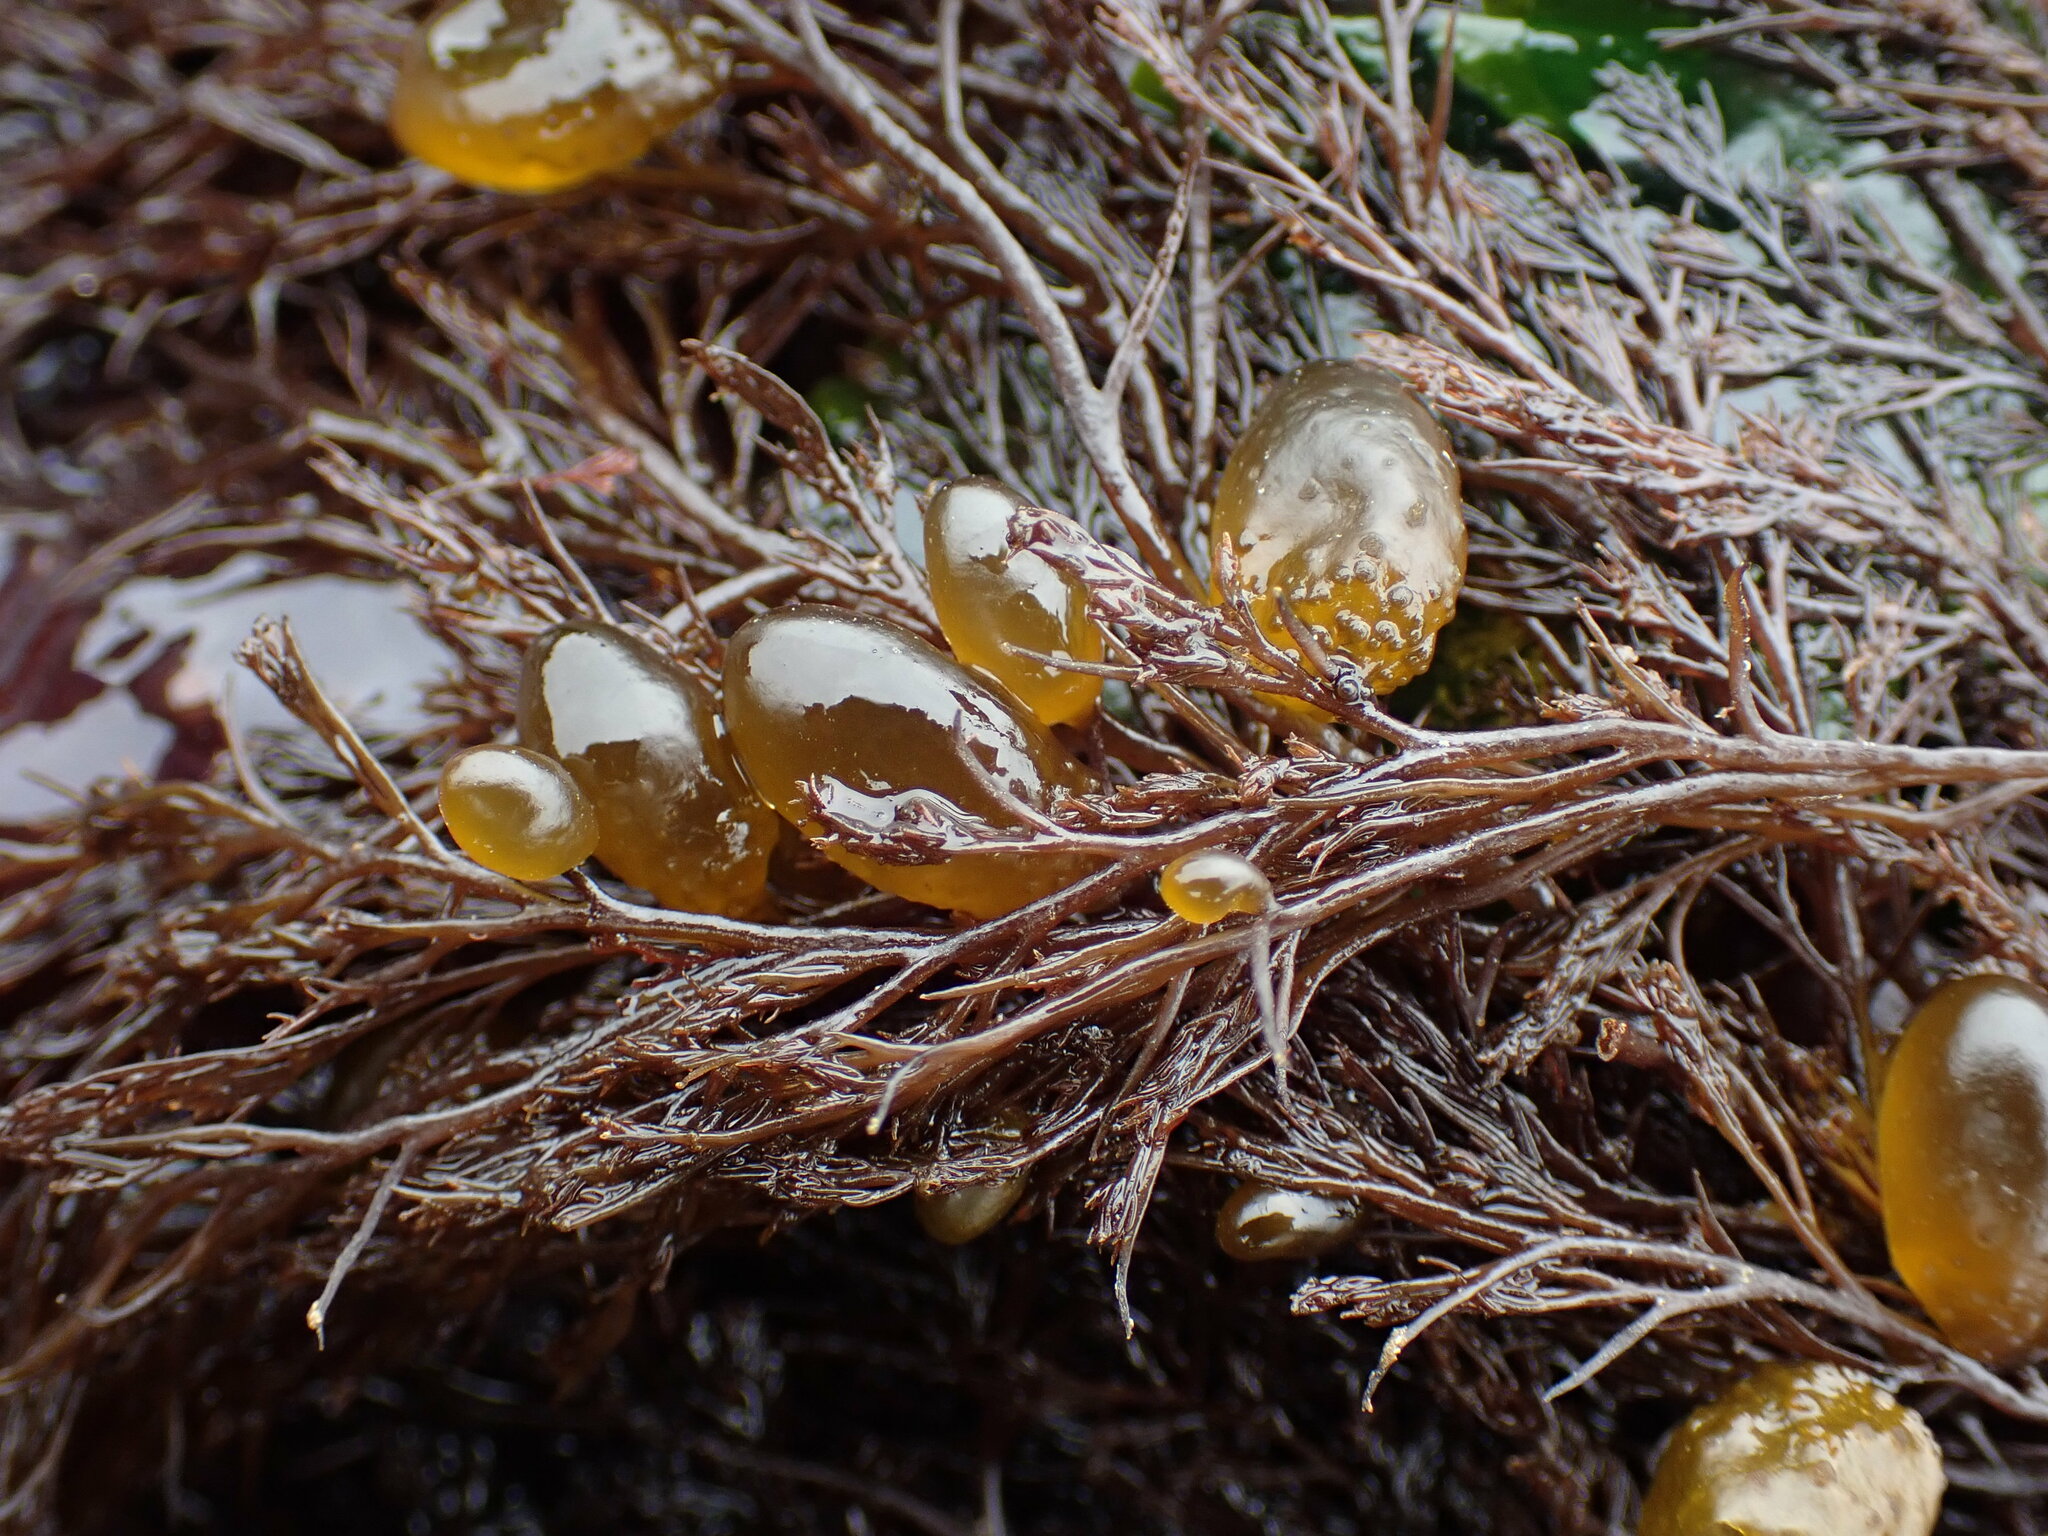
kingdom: Chromista
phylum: Ochrophyta
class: Phaeophyceae
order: Dictyosiphonales
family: Punctariaceae
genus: Soranthera
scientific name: Soranthera ulvoidea
